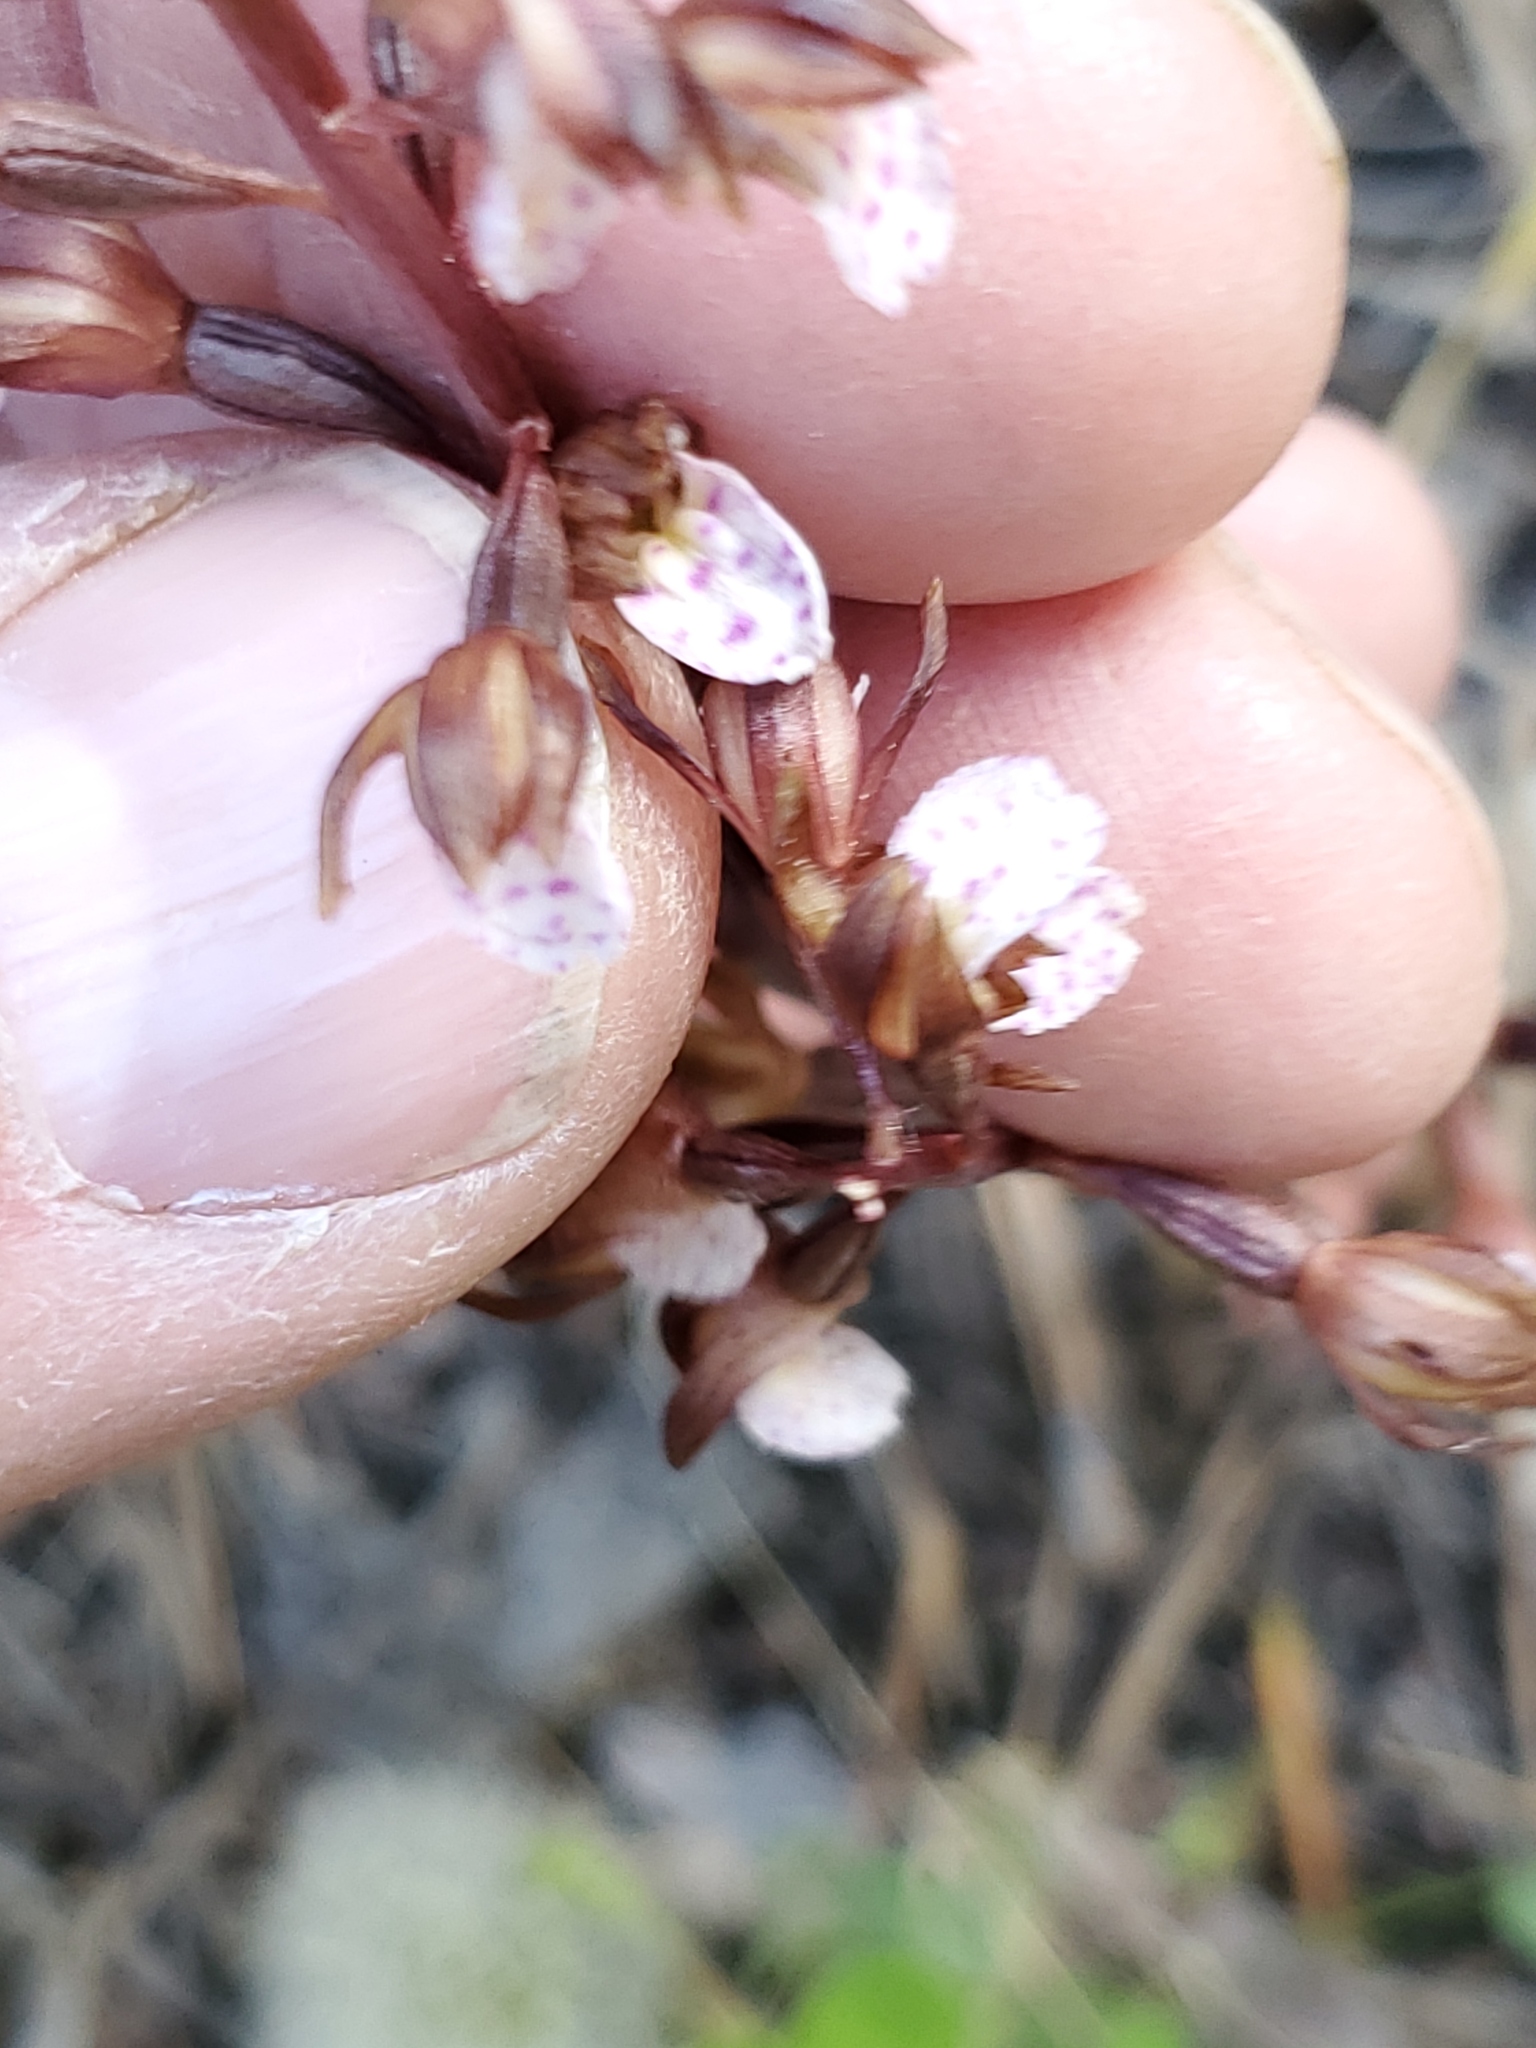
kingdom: Plantae
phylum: Tracheophyta
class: Liliopsida
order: Asparagales
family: Orchidaceae
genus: Corallorhiza
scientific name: Corallorhiza wisteriana
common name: Spring coralroot
